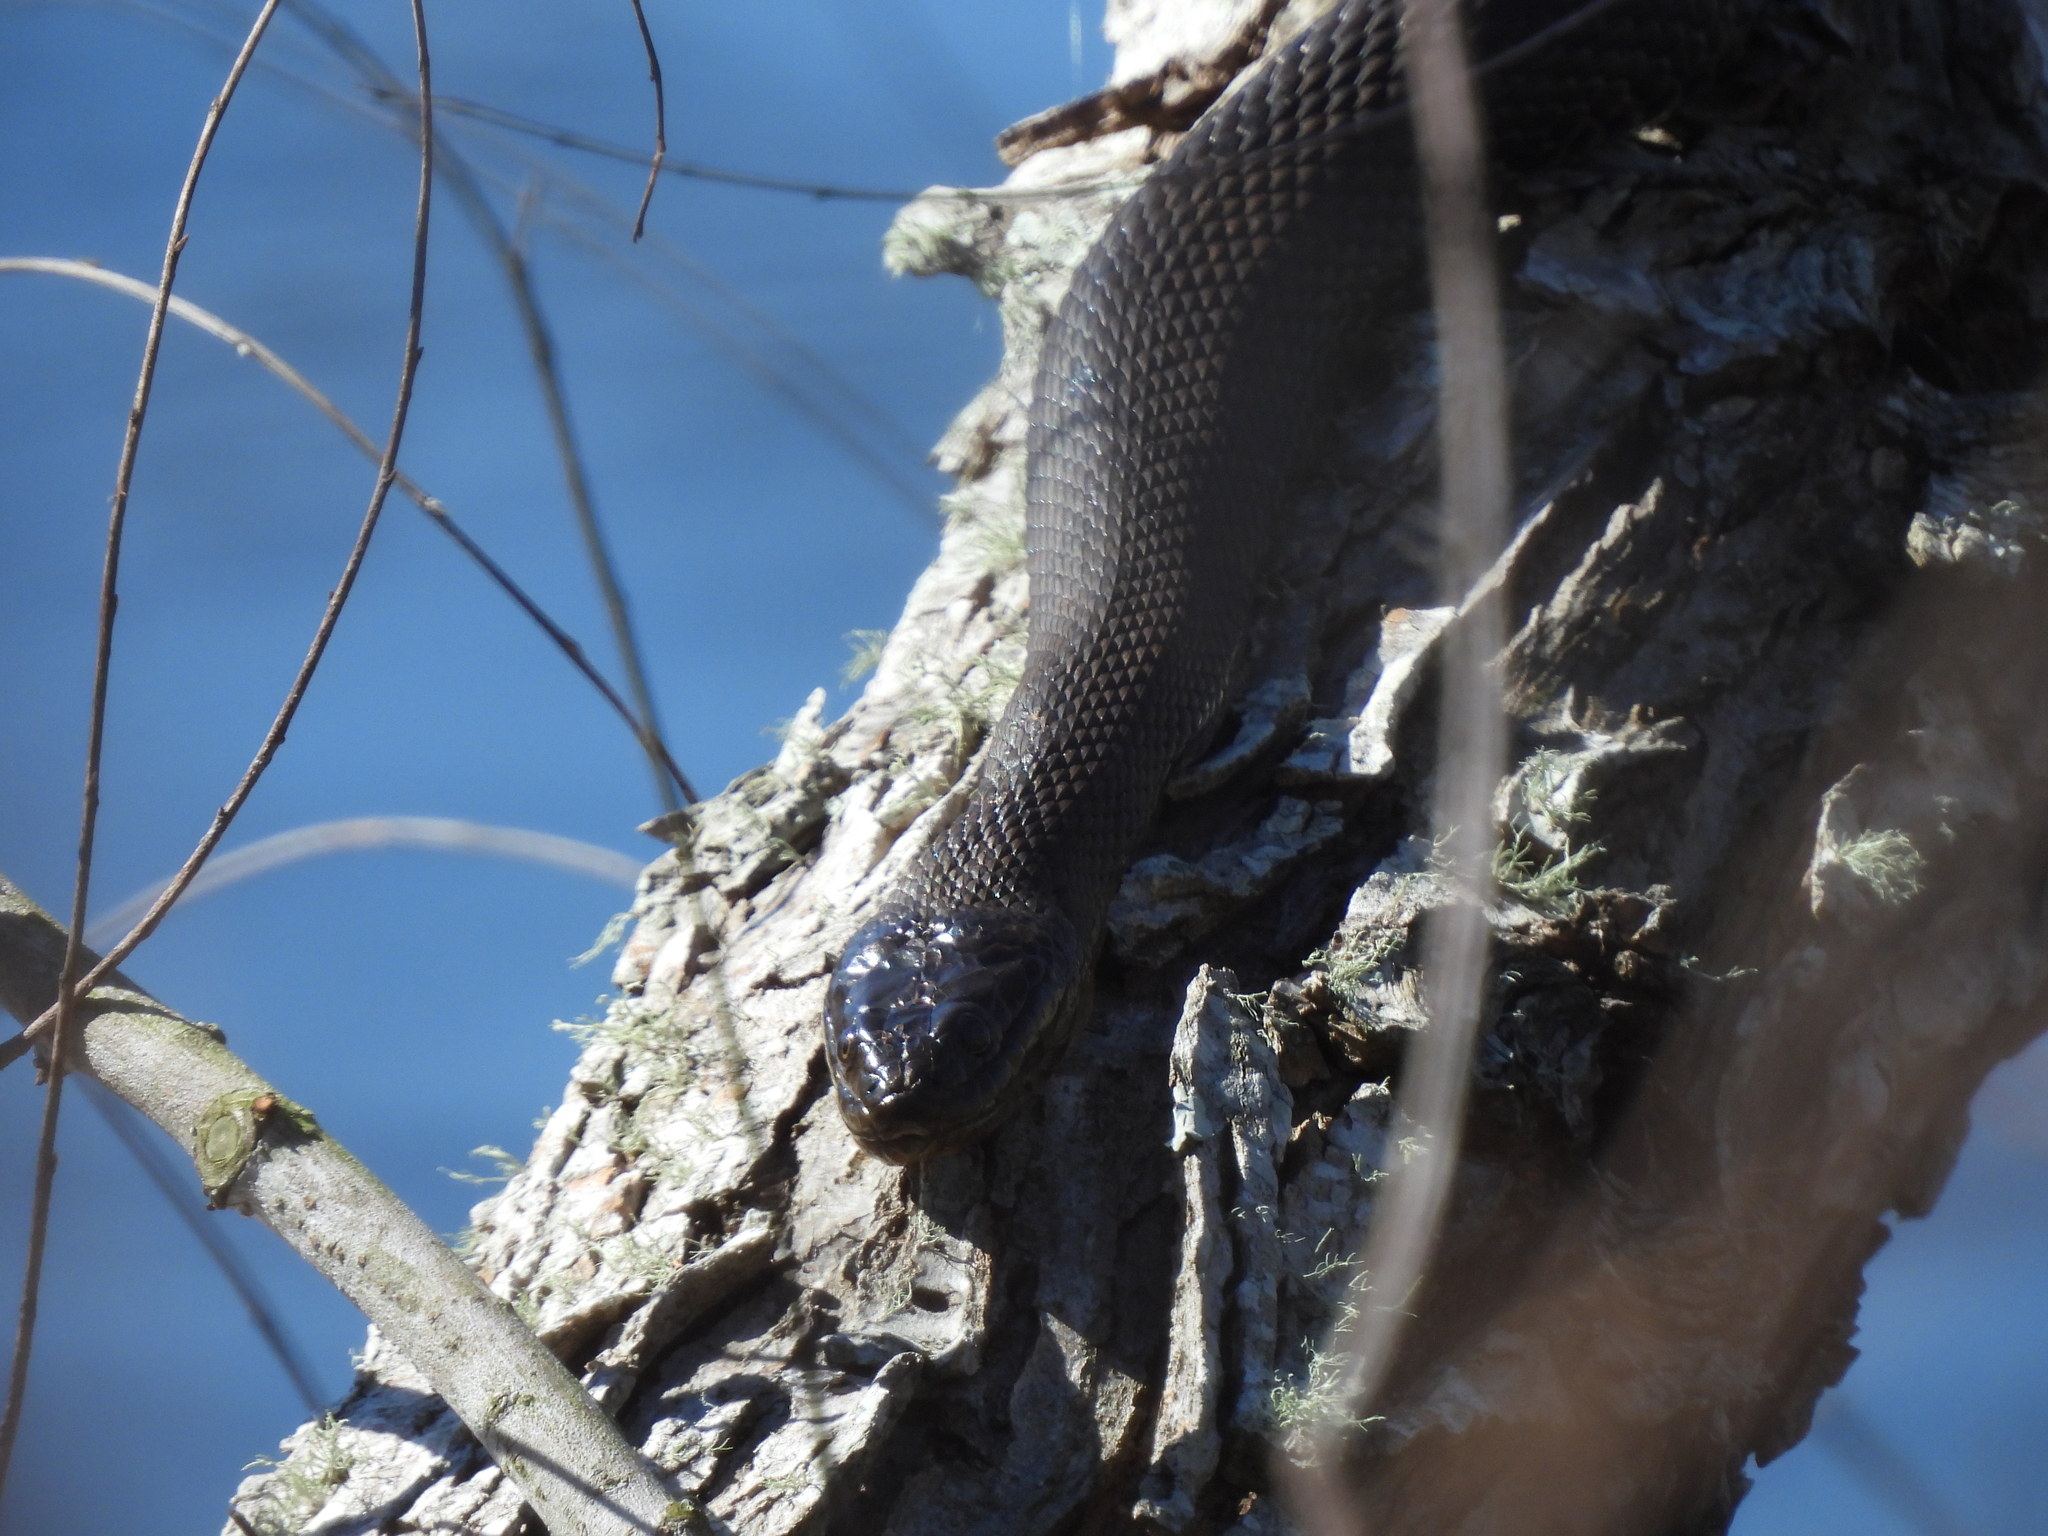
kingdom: Animalia
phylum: Chordata
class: Squamata
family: Colubridae
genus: Nerodia
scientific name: Nerodia cyclopion
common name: Mississippi green water snake
